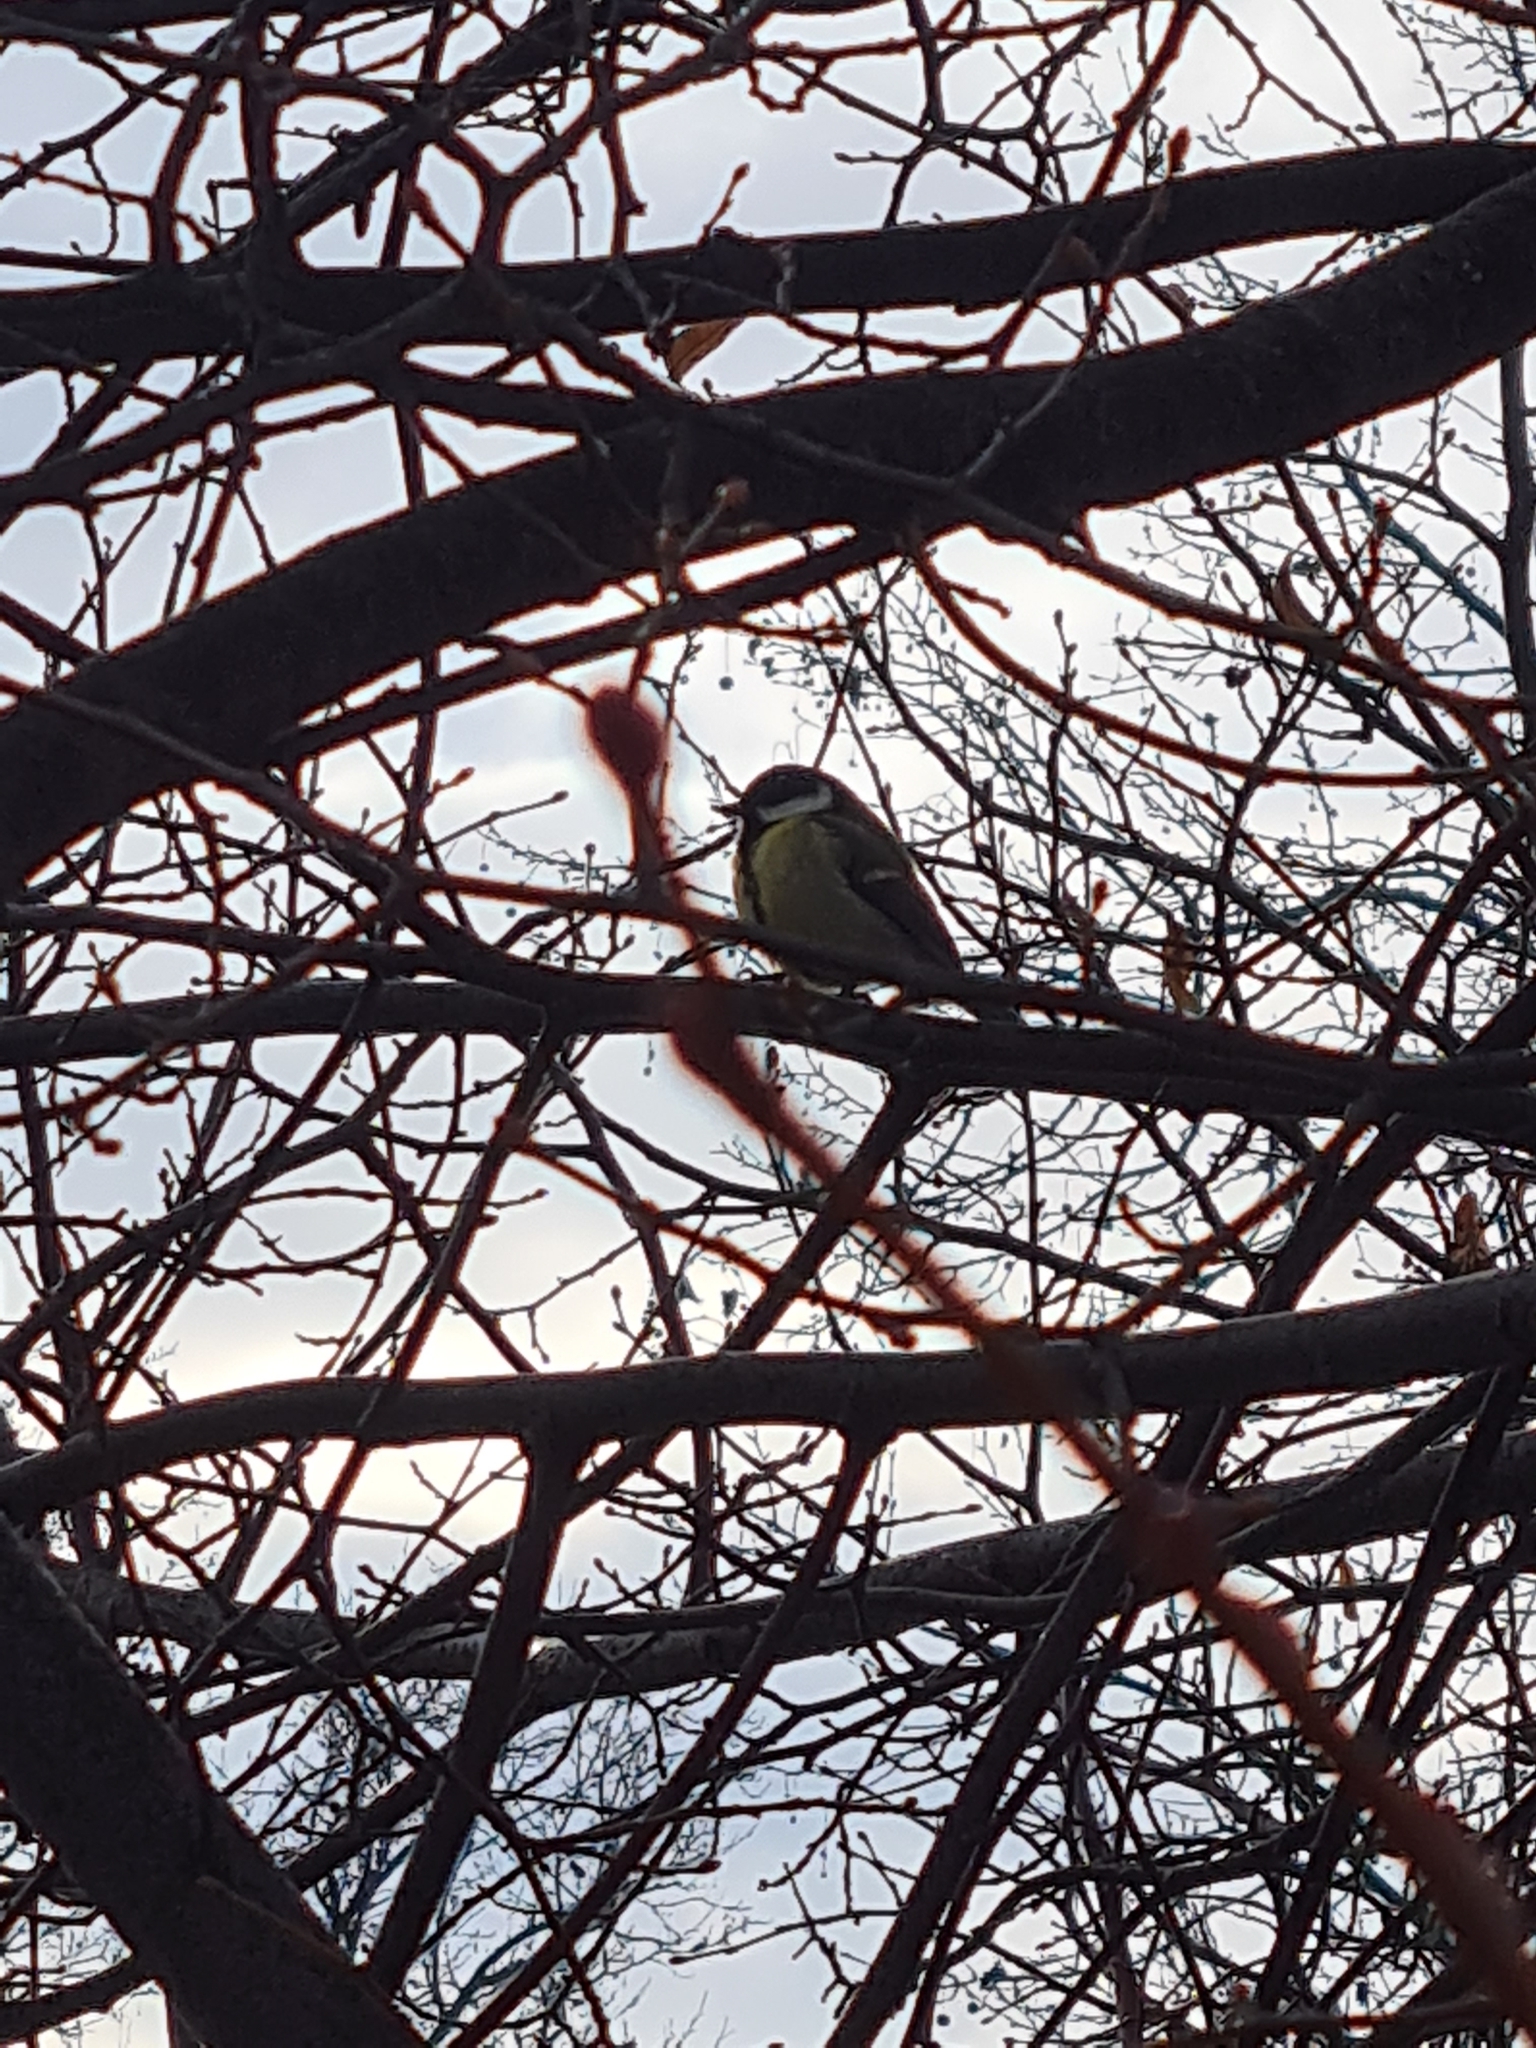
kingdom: Animalia
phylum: Chordata
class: Aves
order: Passeriformes
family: Paridae
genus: Parus
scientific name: Parus major
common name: Great tit
